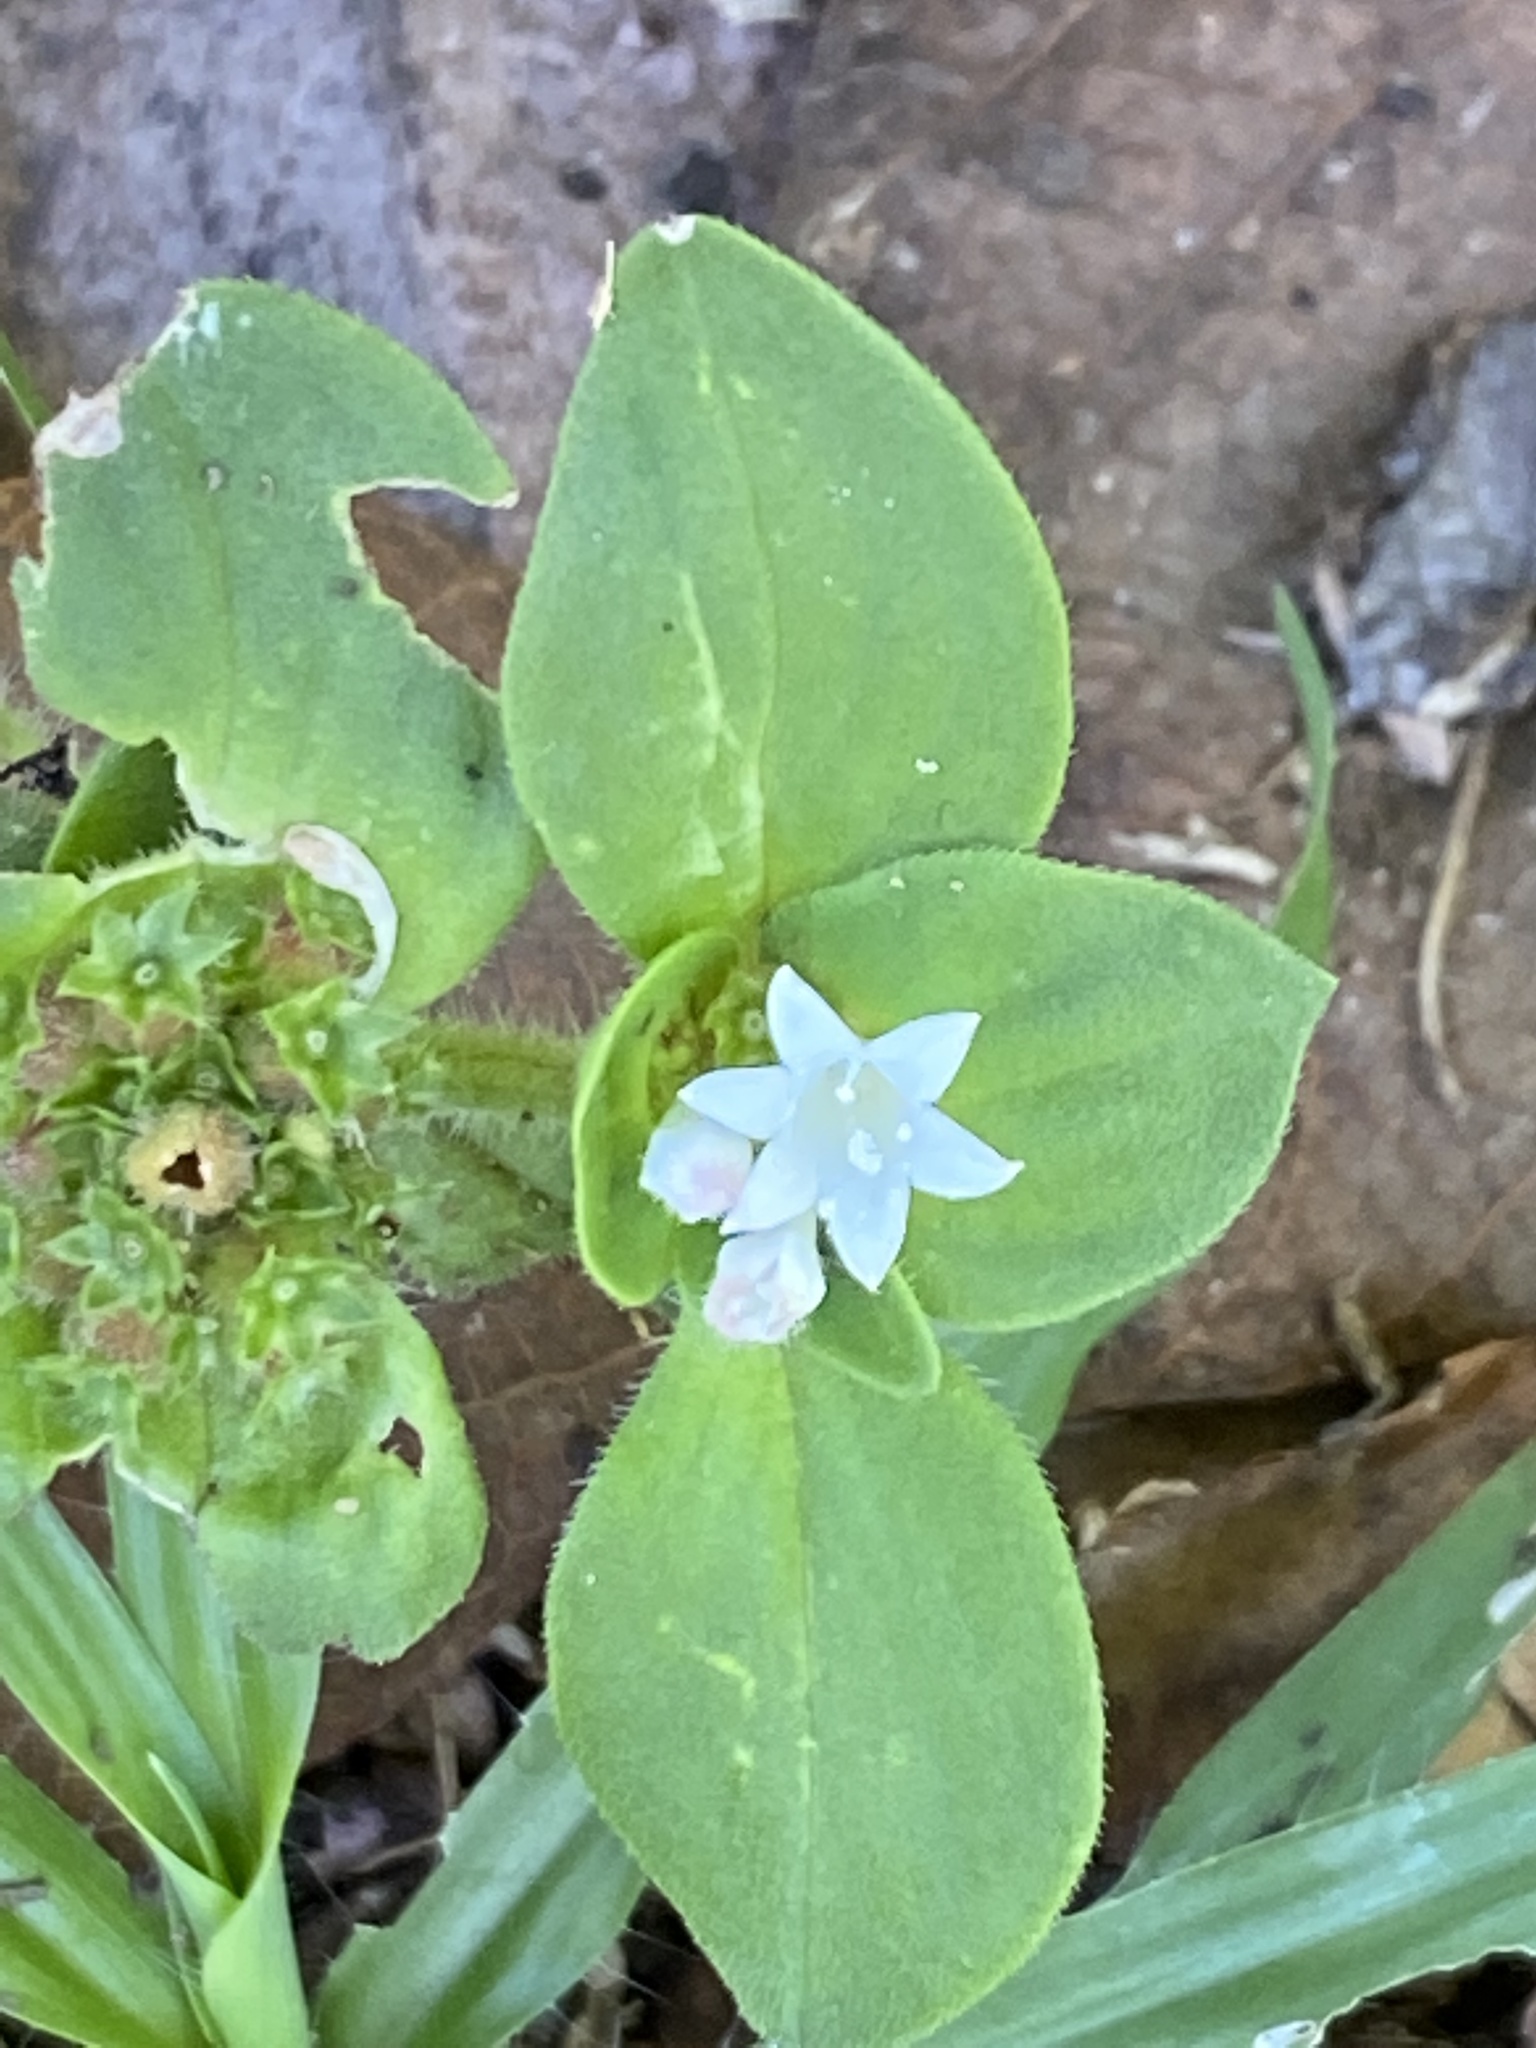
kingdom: Plantae
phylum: Tracheophyta
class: Magnoliopsida
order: Gentianales
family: Rubiaceae
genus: Richardia
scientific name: Richardia brasiliensis
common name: Tropical mexican clover
